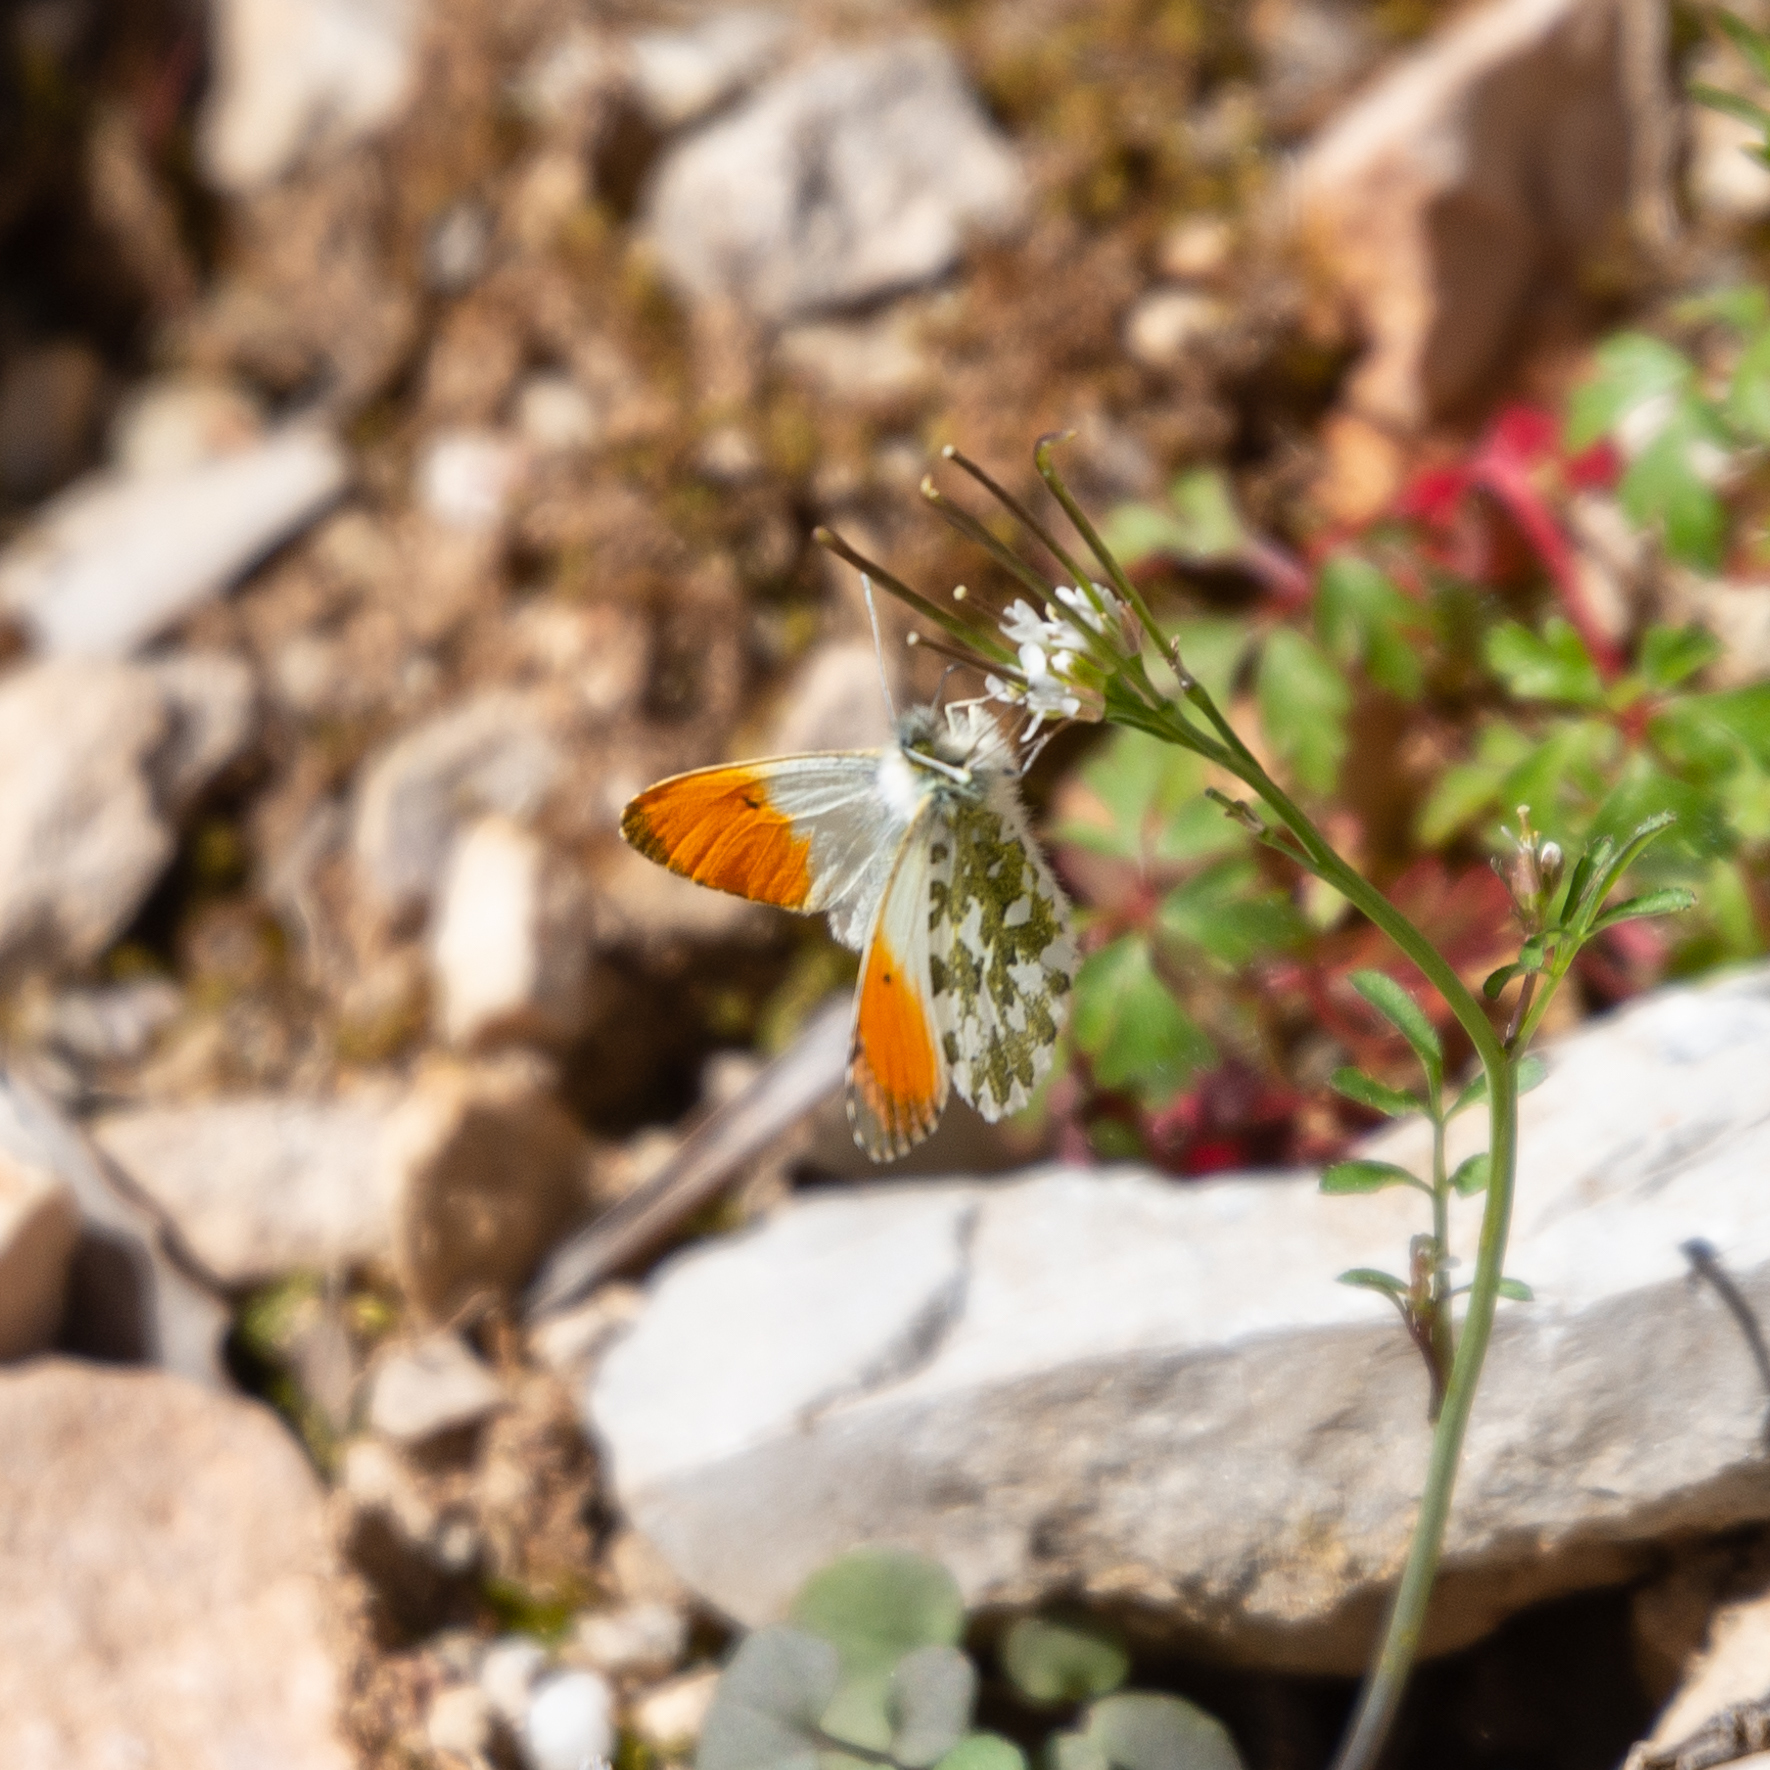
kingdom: Animalia
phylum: Arthropoda
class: Insecta
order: Lepidoptera
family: Pieridae
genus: Anthocharis
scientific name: Anthocharis cardamines
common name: Orange-tip
